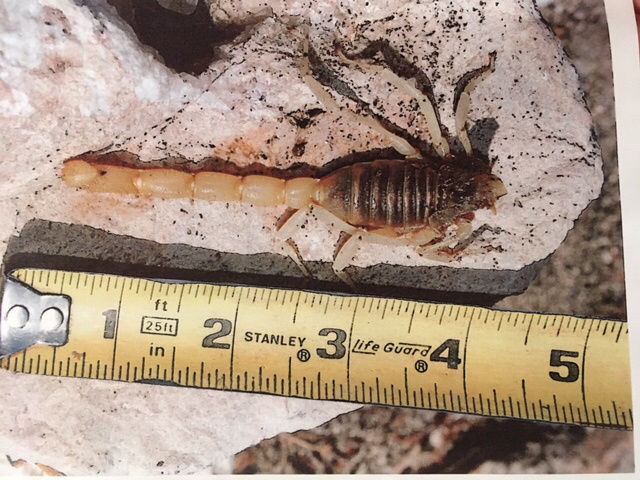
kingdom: Animalia
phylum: Arthropoda
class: Arachnida
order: Scorpiones
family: Hadruridae
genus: Hadrurus
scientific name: Hadrurus arizonensis
